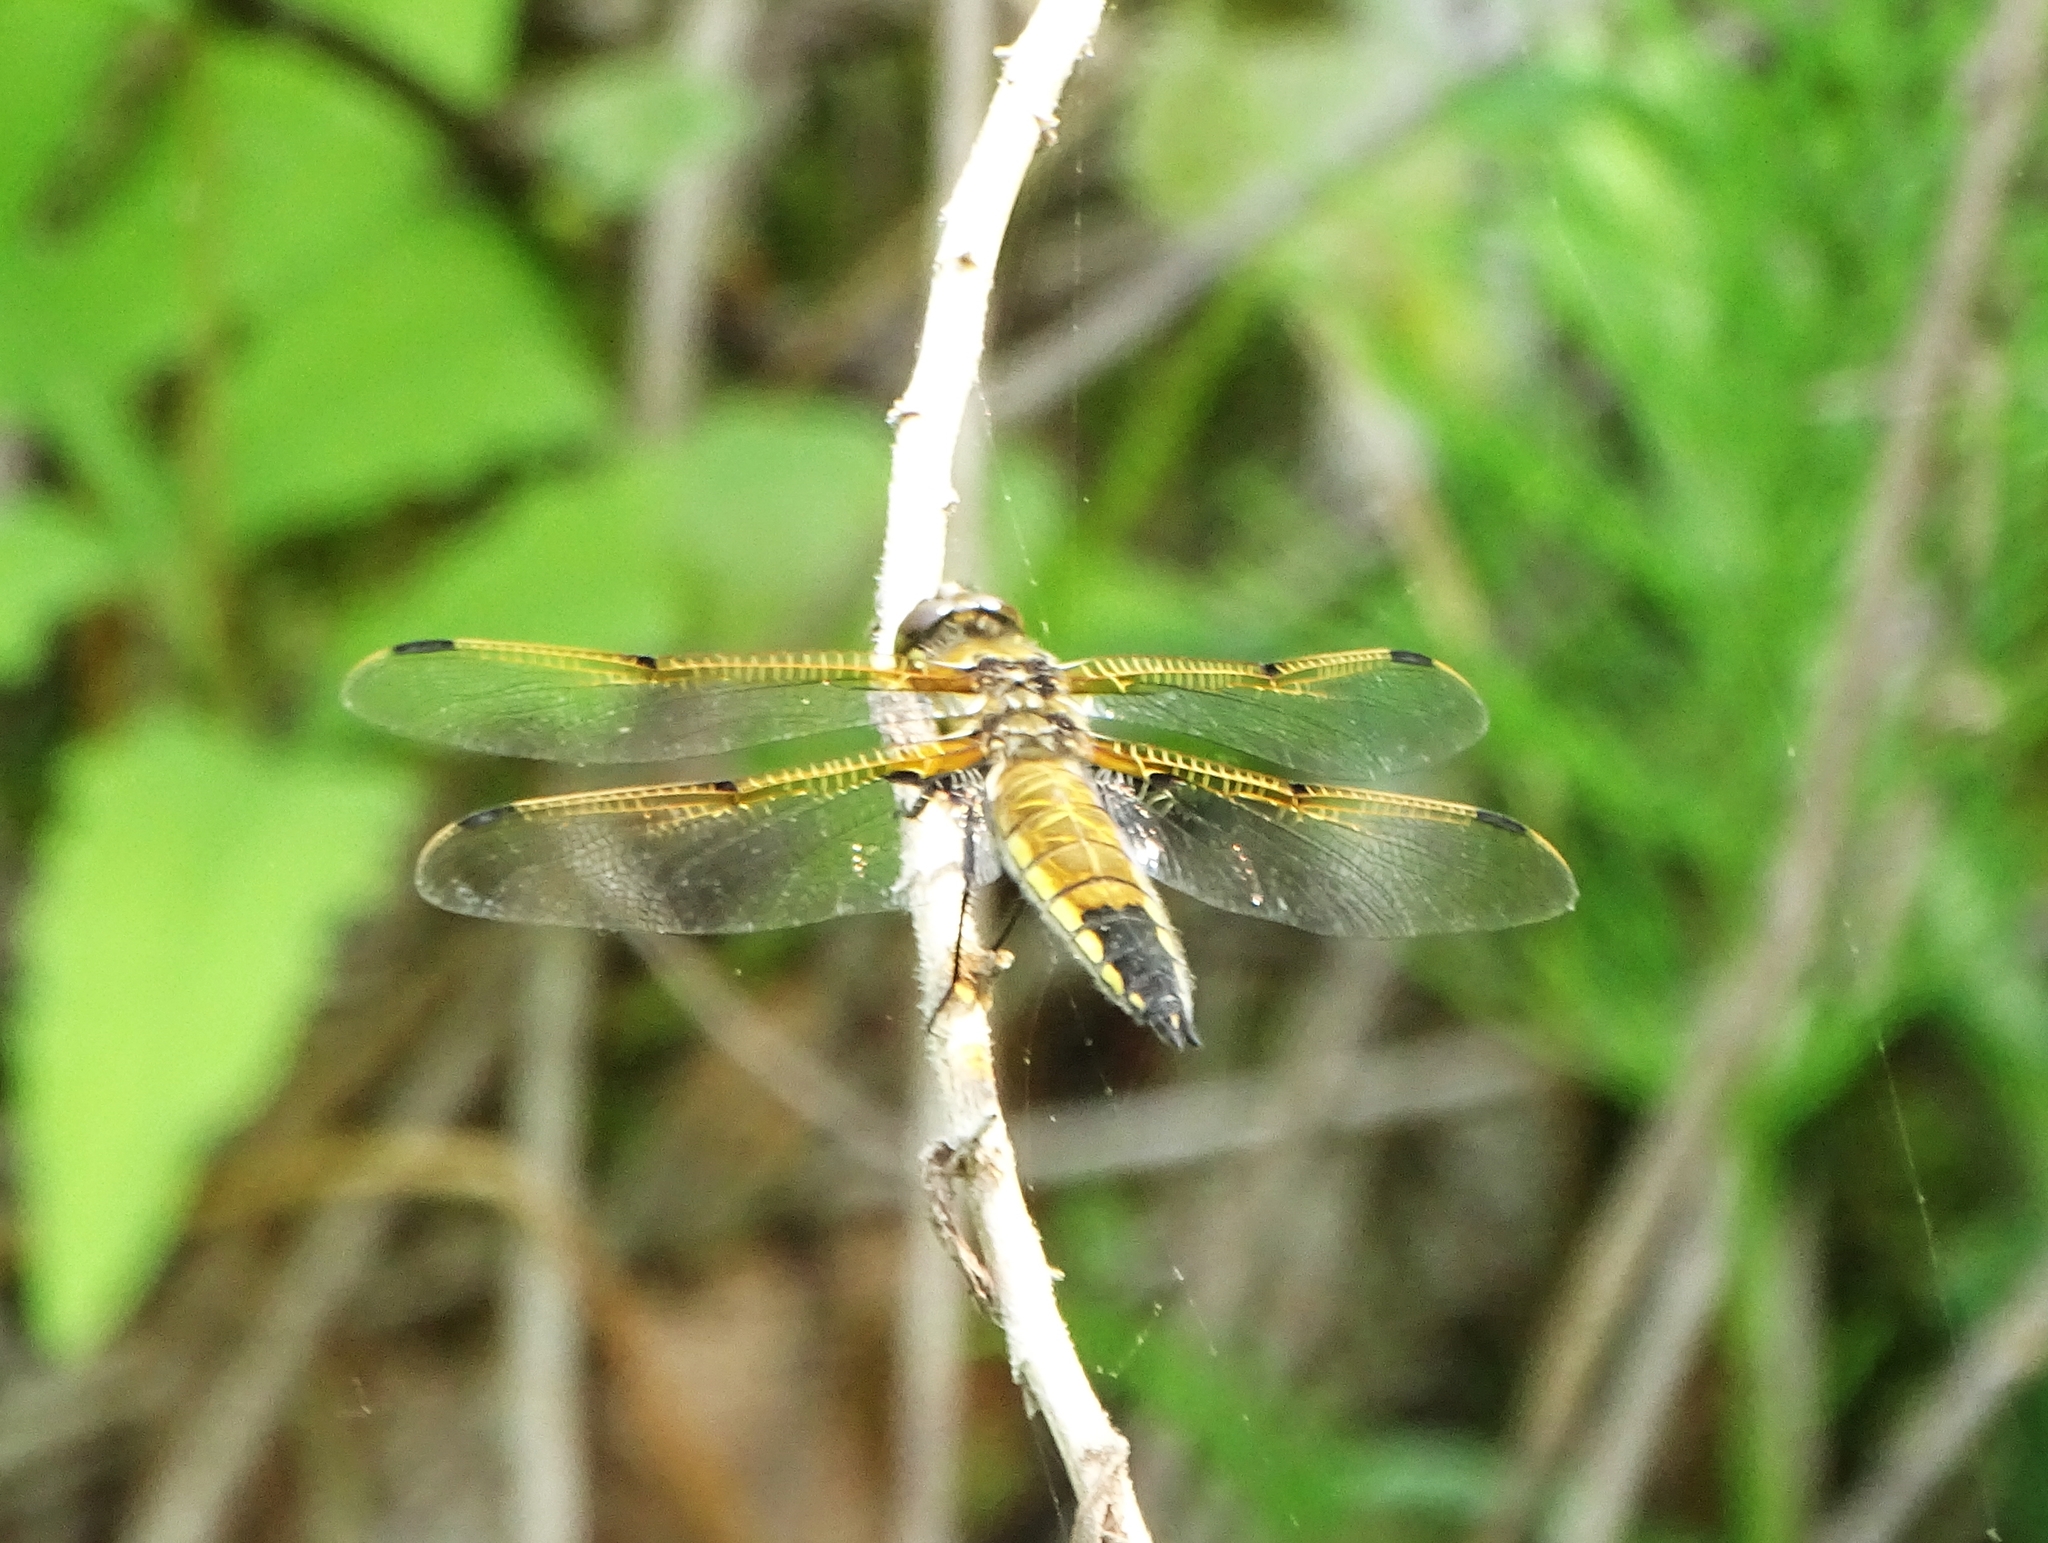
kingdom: Animalia
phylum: Arthropoda
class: Insecta
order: Odonata
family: Libellulidae
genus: Libellula
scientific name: Libellula quadrimaculata
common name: Four-spotted chaser
